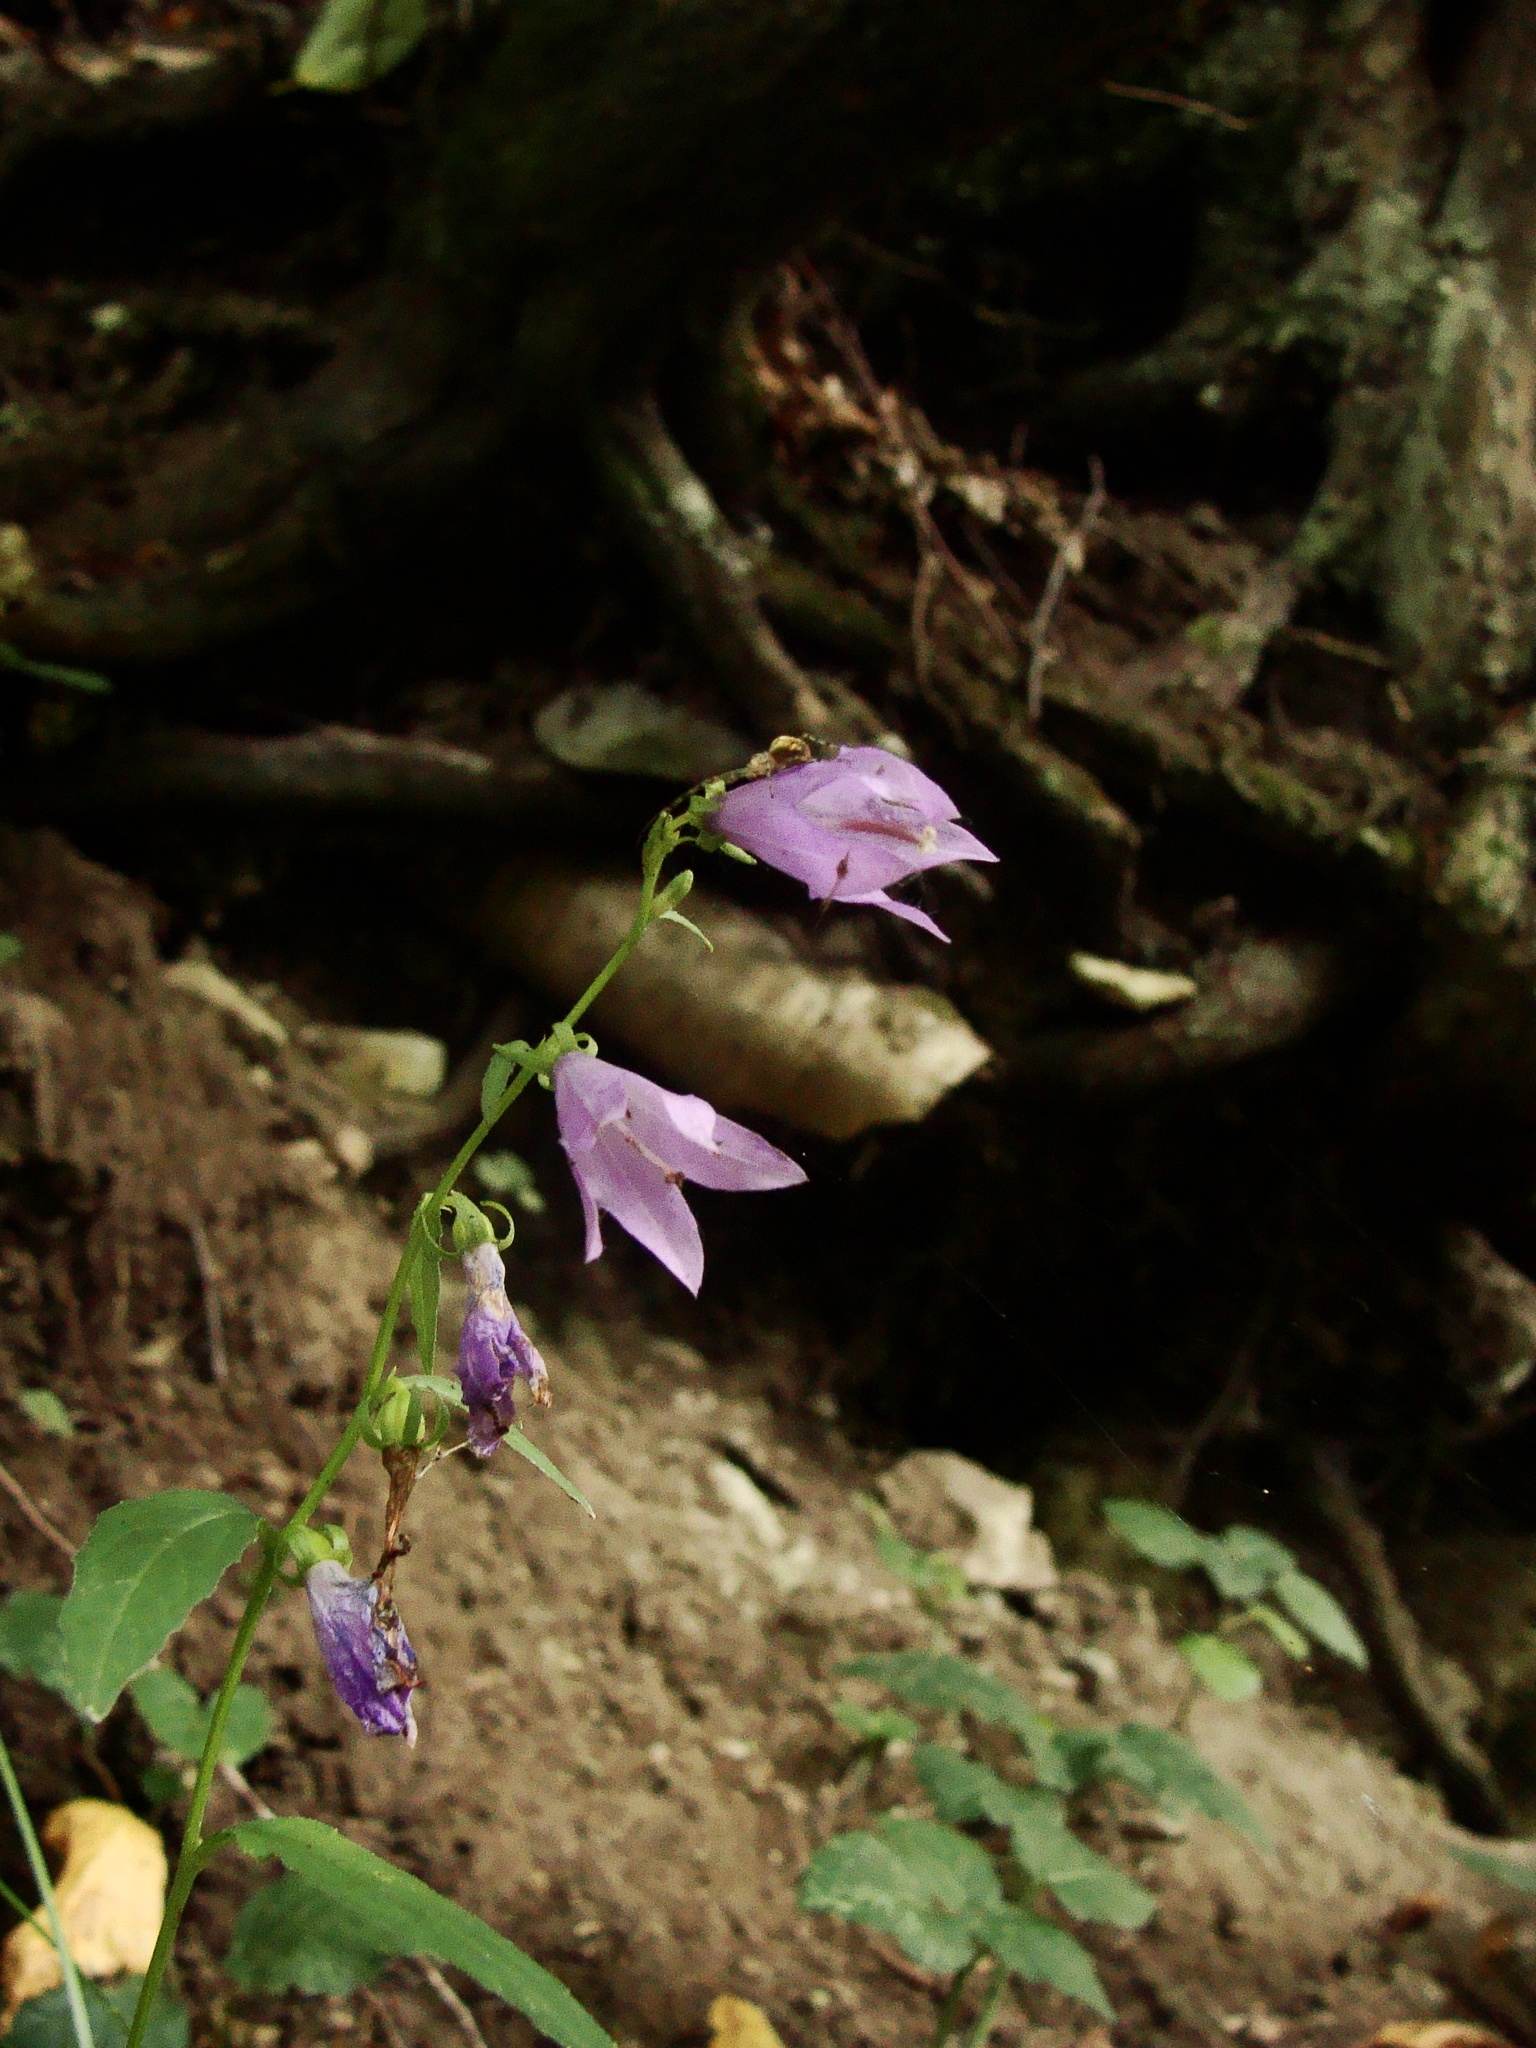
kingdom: Plantae
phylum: Tracheophyta
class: Magnoliopsida
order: Asterales
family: Campanulaceae
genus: Campanula
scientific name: Campanula rapunculoides
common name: Creeping bellflower
